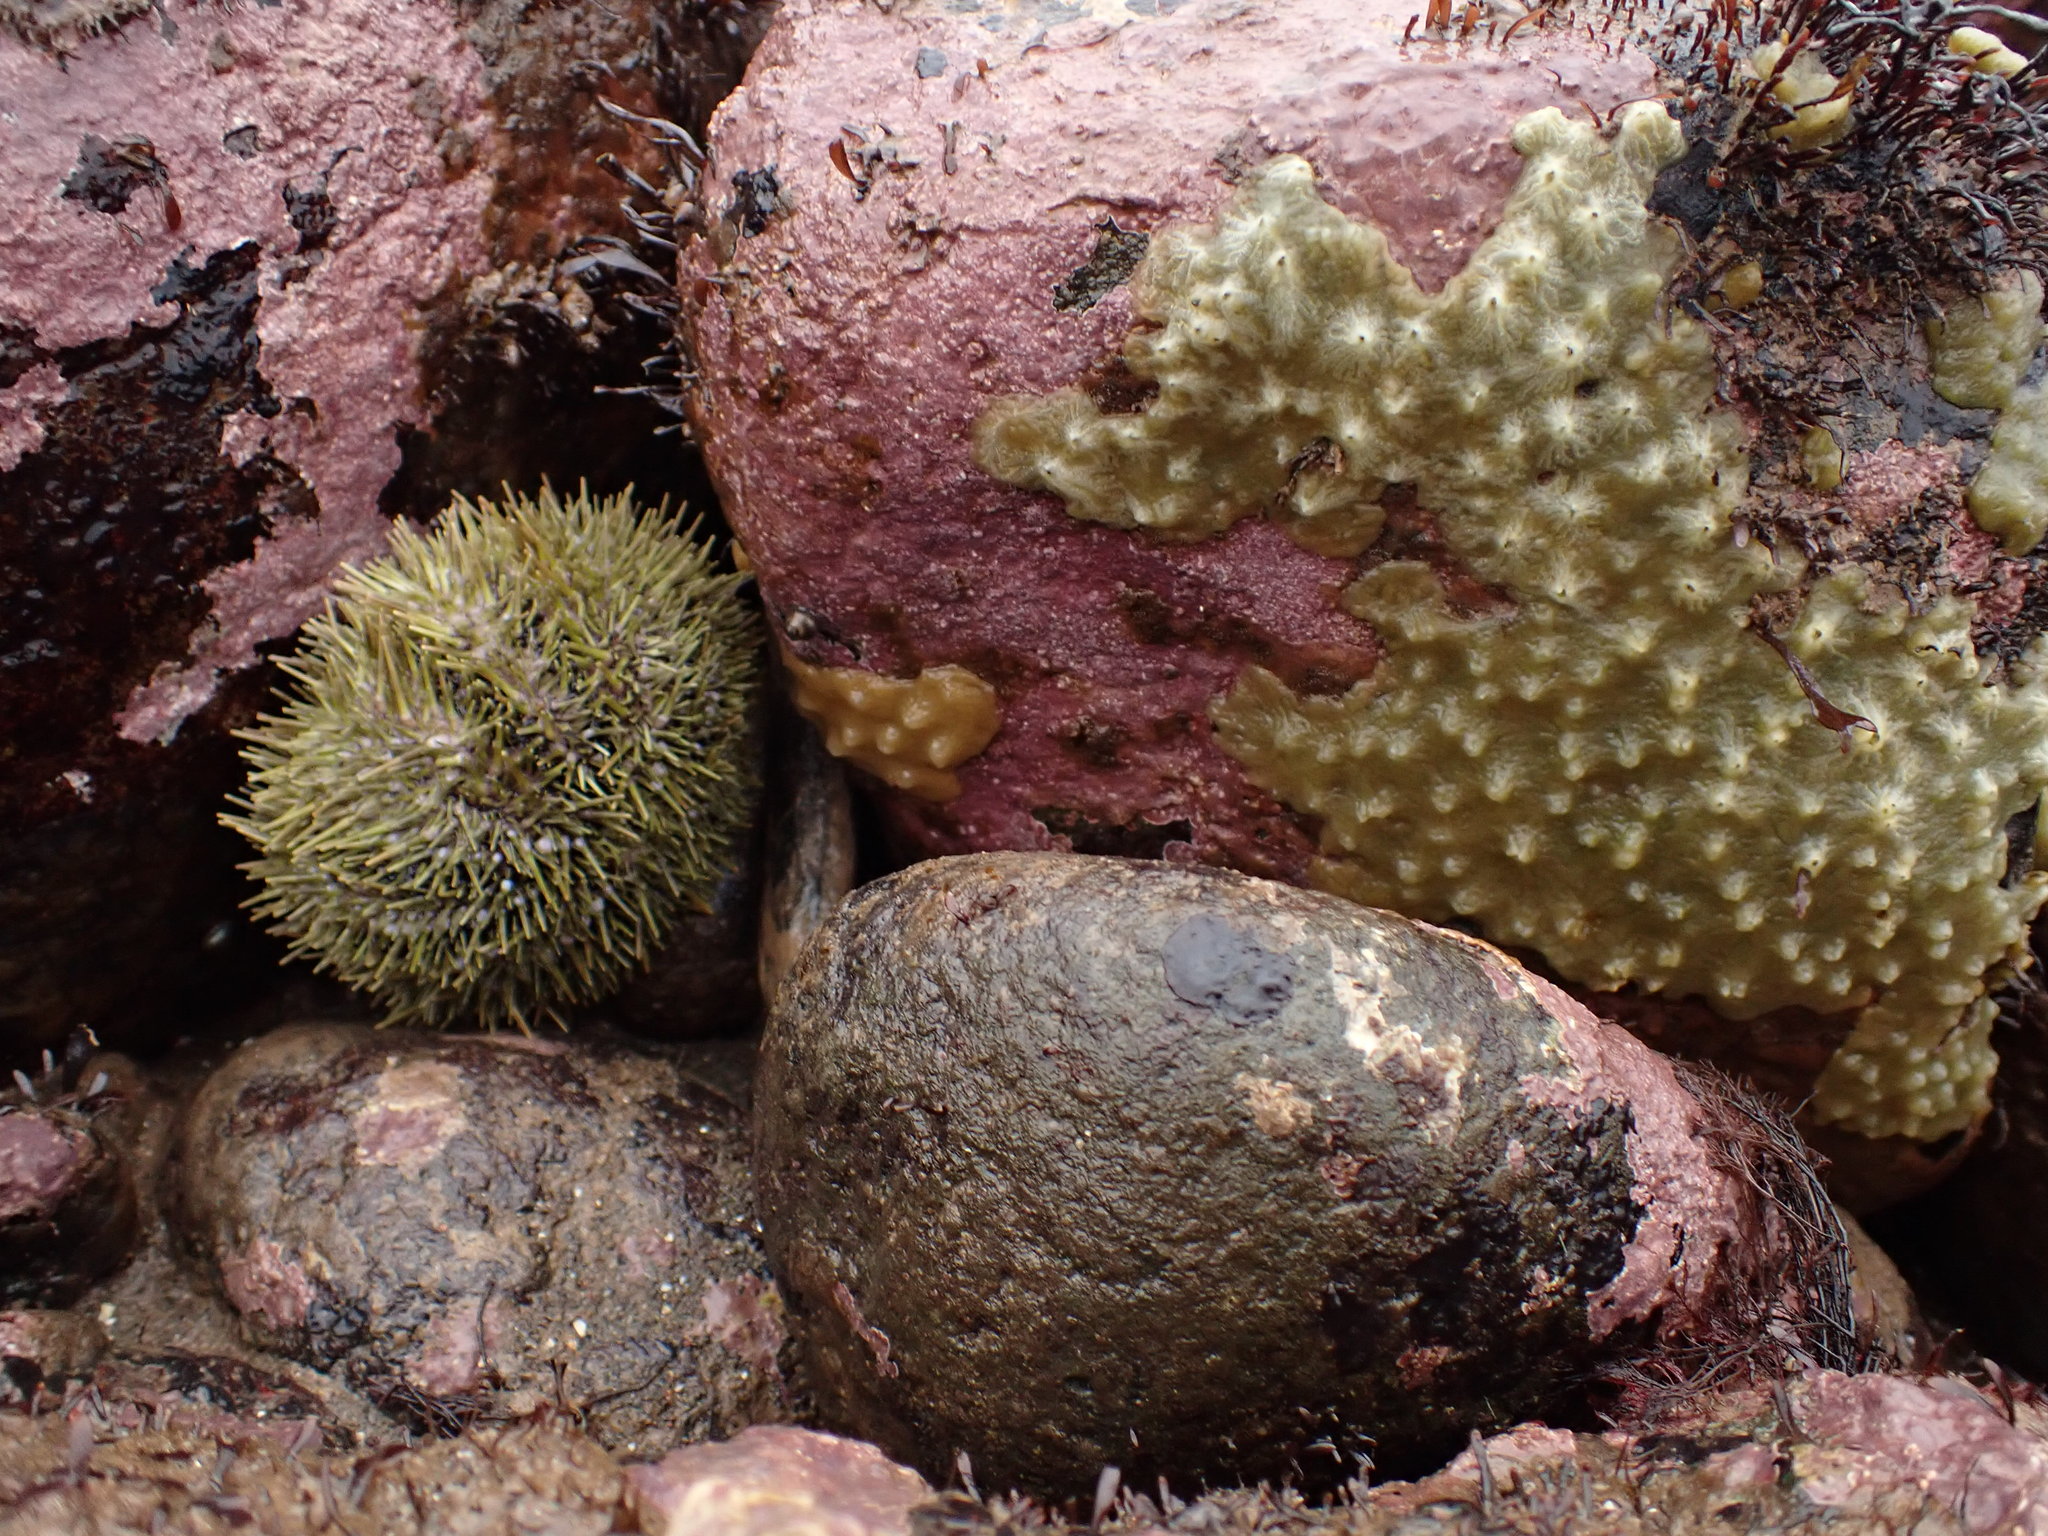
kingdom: Animalia
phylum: Echinodermata
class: Echinoidea
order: Camarodonta
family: Strongylocentrotidae
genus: Strongylocentrotus
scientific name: Strongylocentrotus droebachiensis
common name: Northern sea urchin
